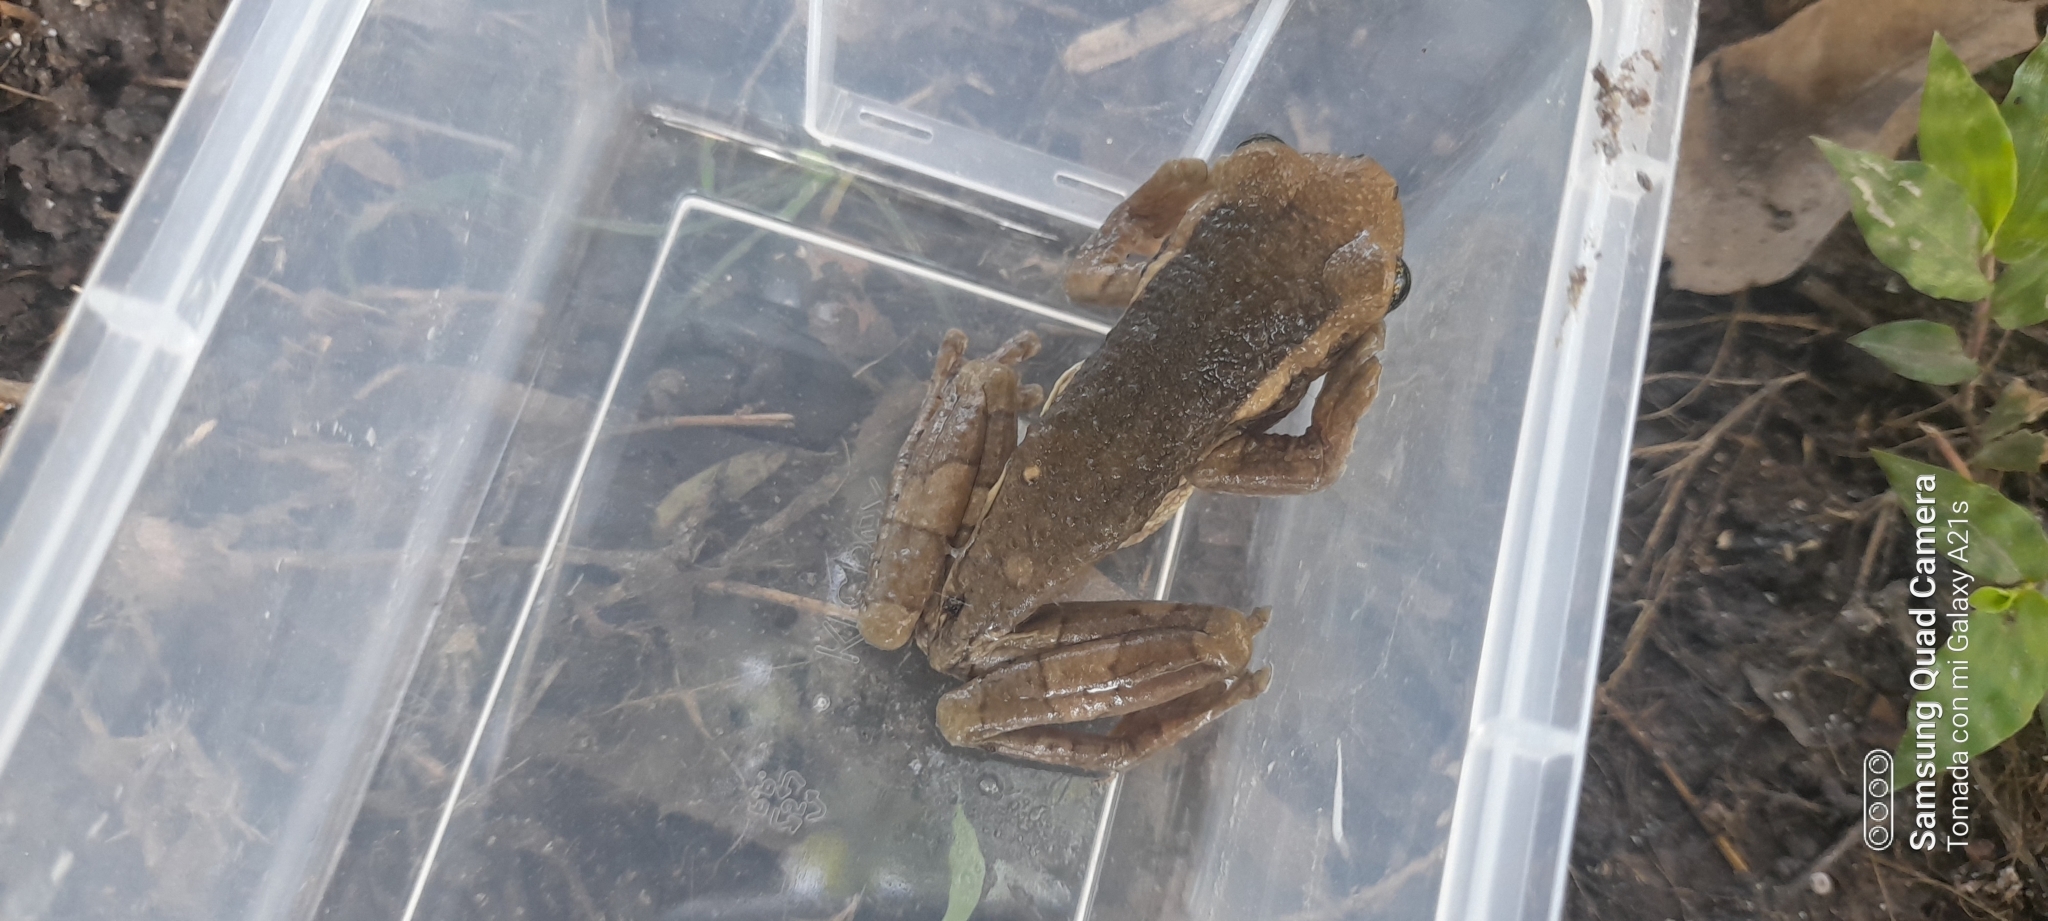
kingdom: Animalia
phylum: Chordata
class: Amphibia
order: Anura
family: Hylidae
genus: Trachycephalus
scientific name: Trachycephalus vermiculatus
